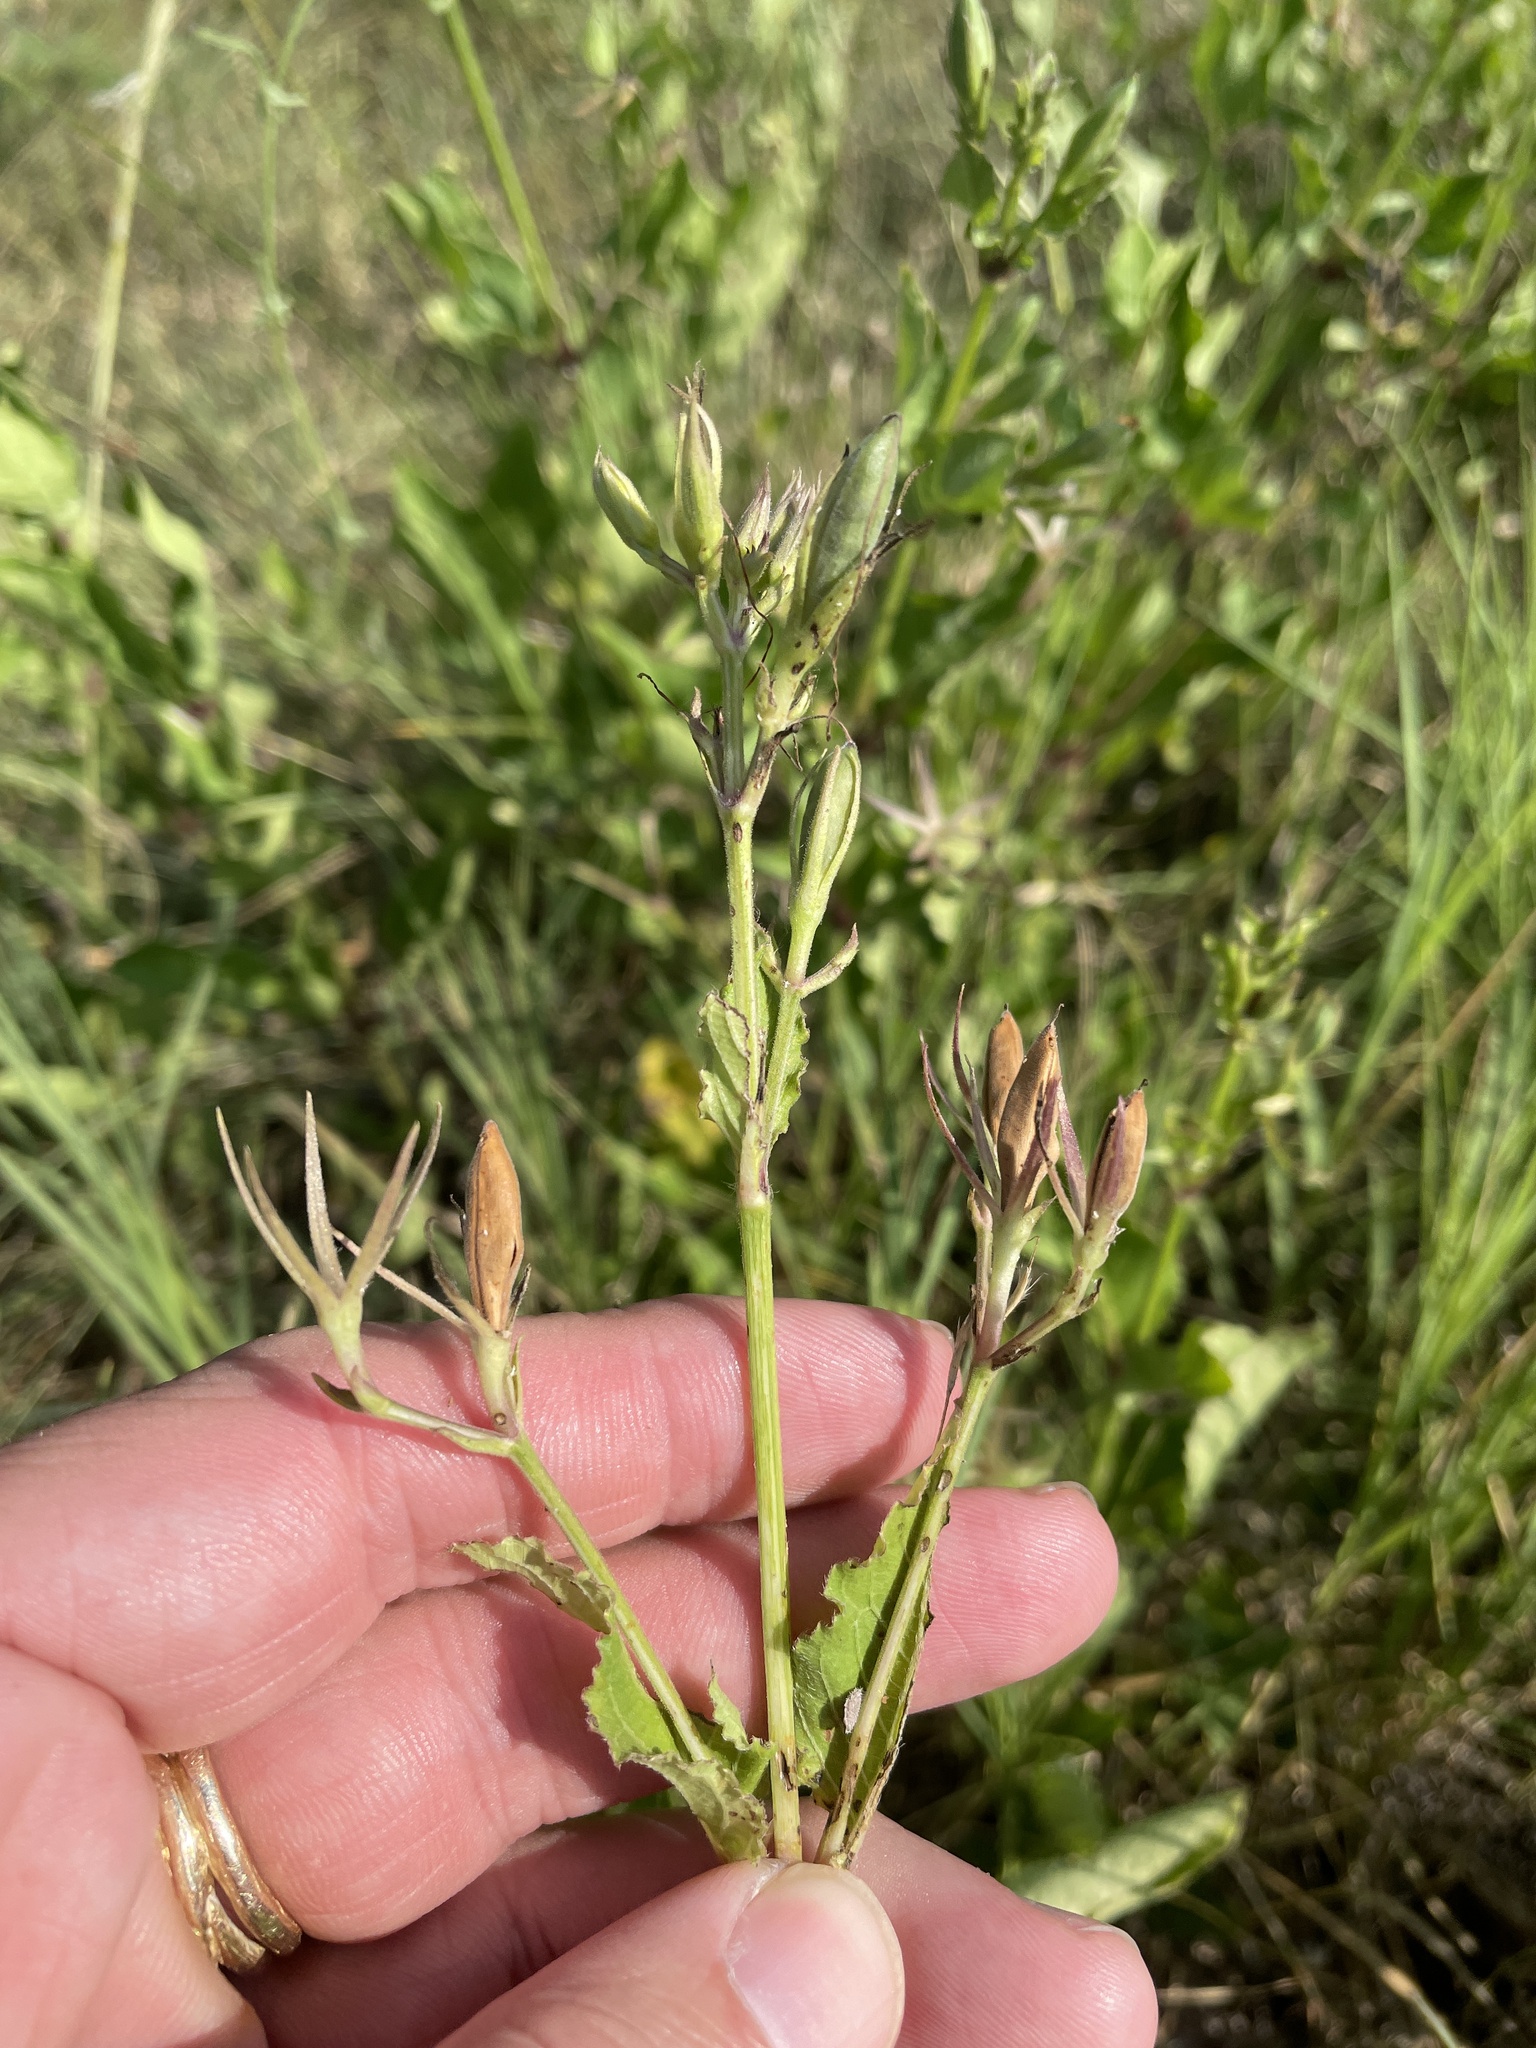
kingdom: Plantae
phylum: Tracheophyta
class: Magnoliopsida
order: Lamiales
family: Acanthaceae
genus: Ruellia
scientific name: Ruellia ciliatiflora
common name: Hairyflower wild petunia
